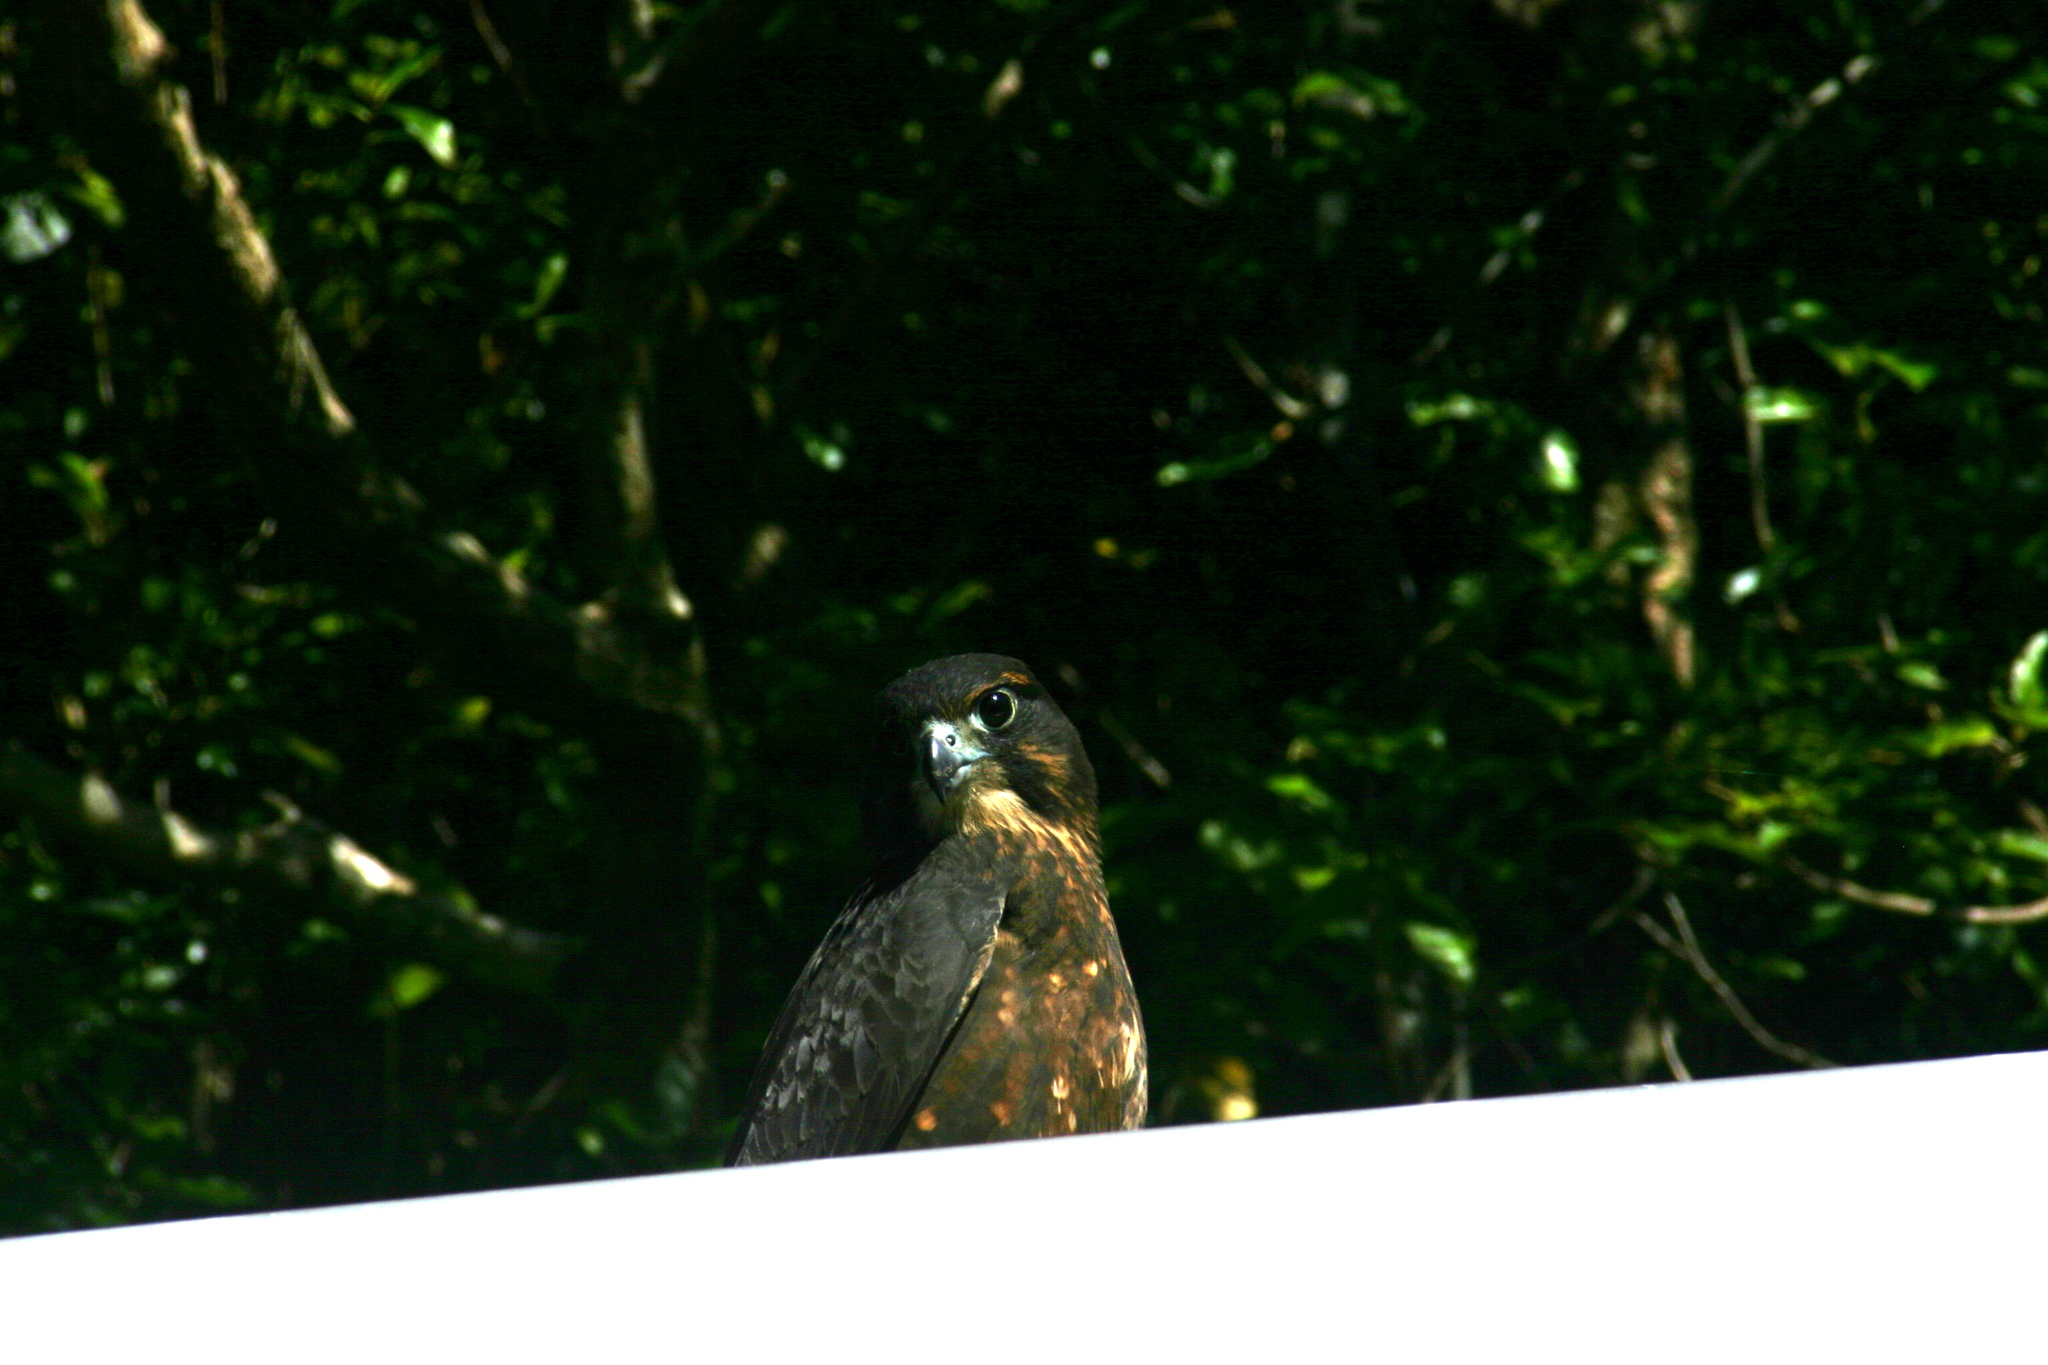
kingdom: Animalia
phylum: Chordata
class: Aves
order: Falconiformes
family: Falconidae
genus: Falco
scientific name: Falco novaeseelandiae
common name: New zealand falcon
